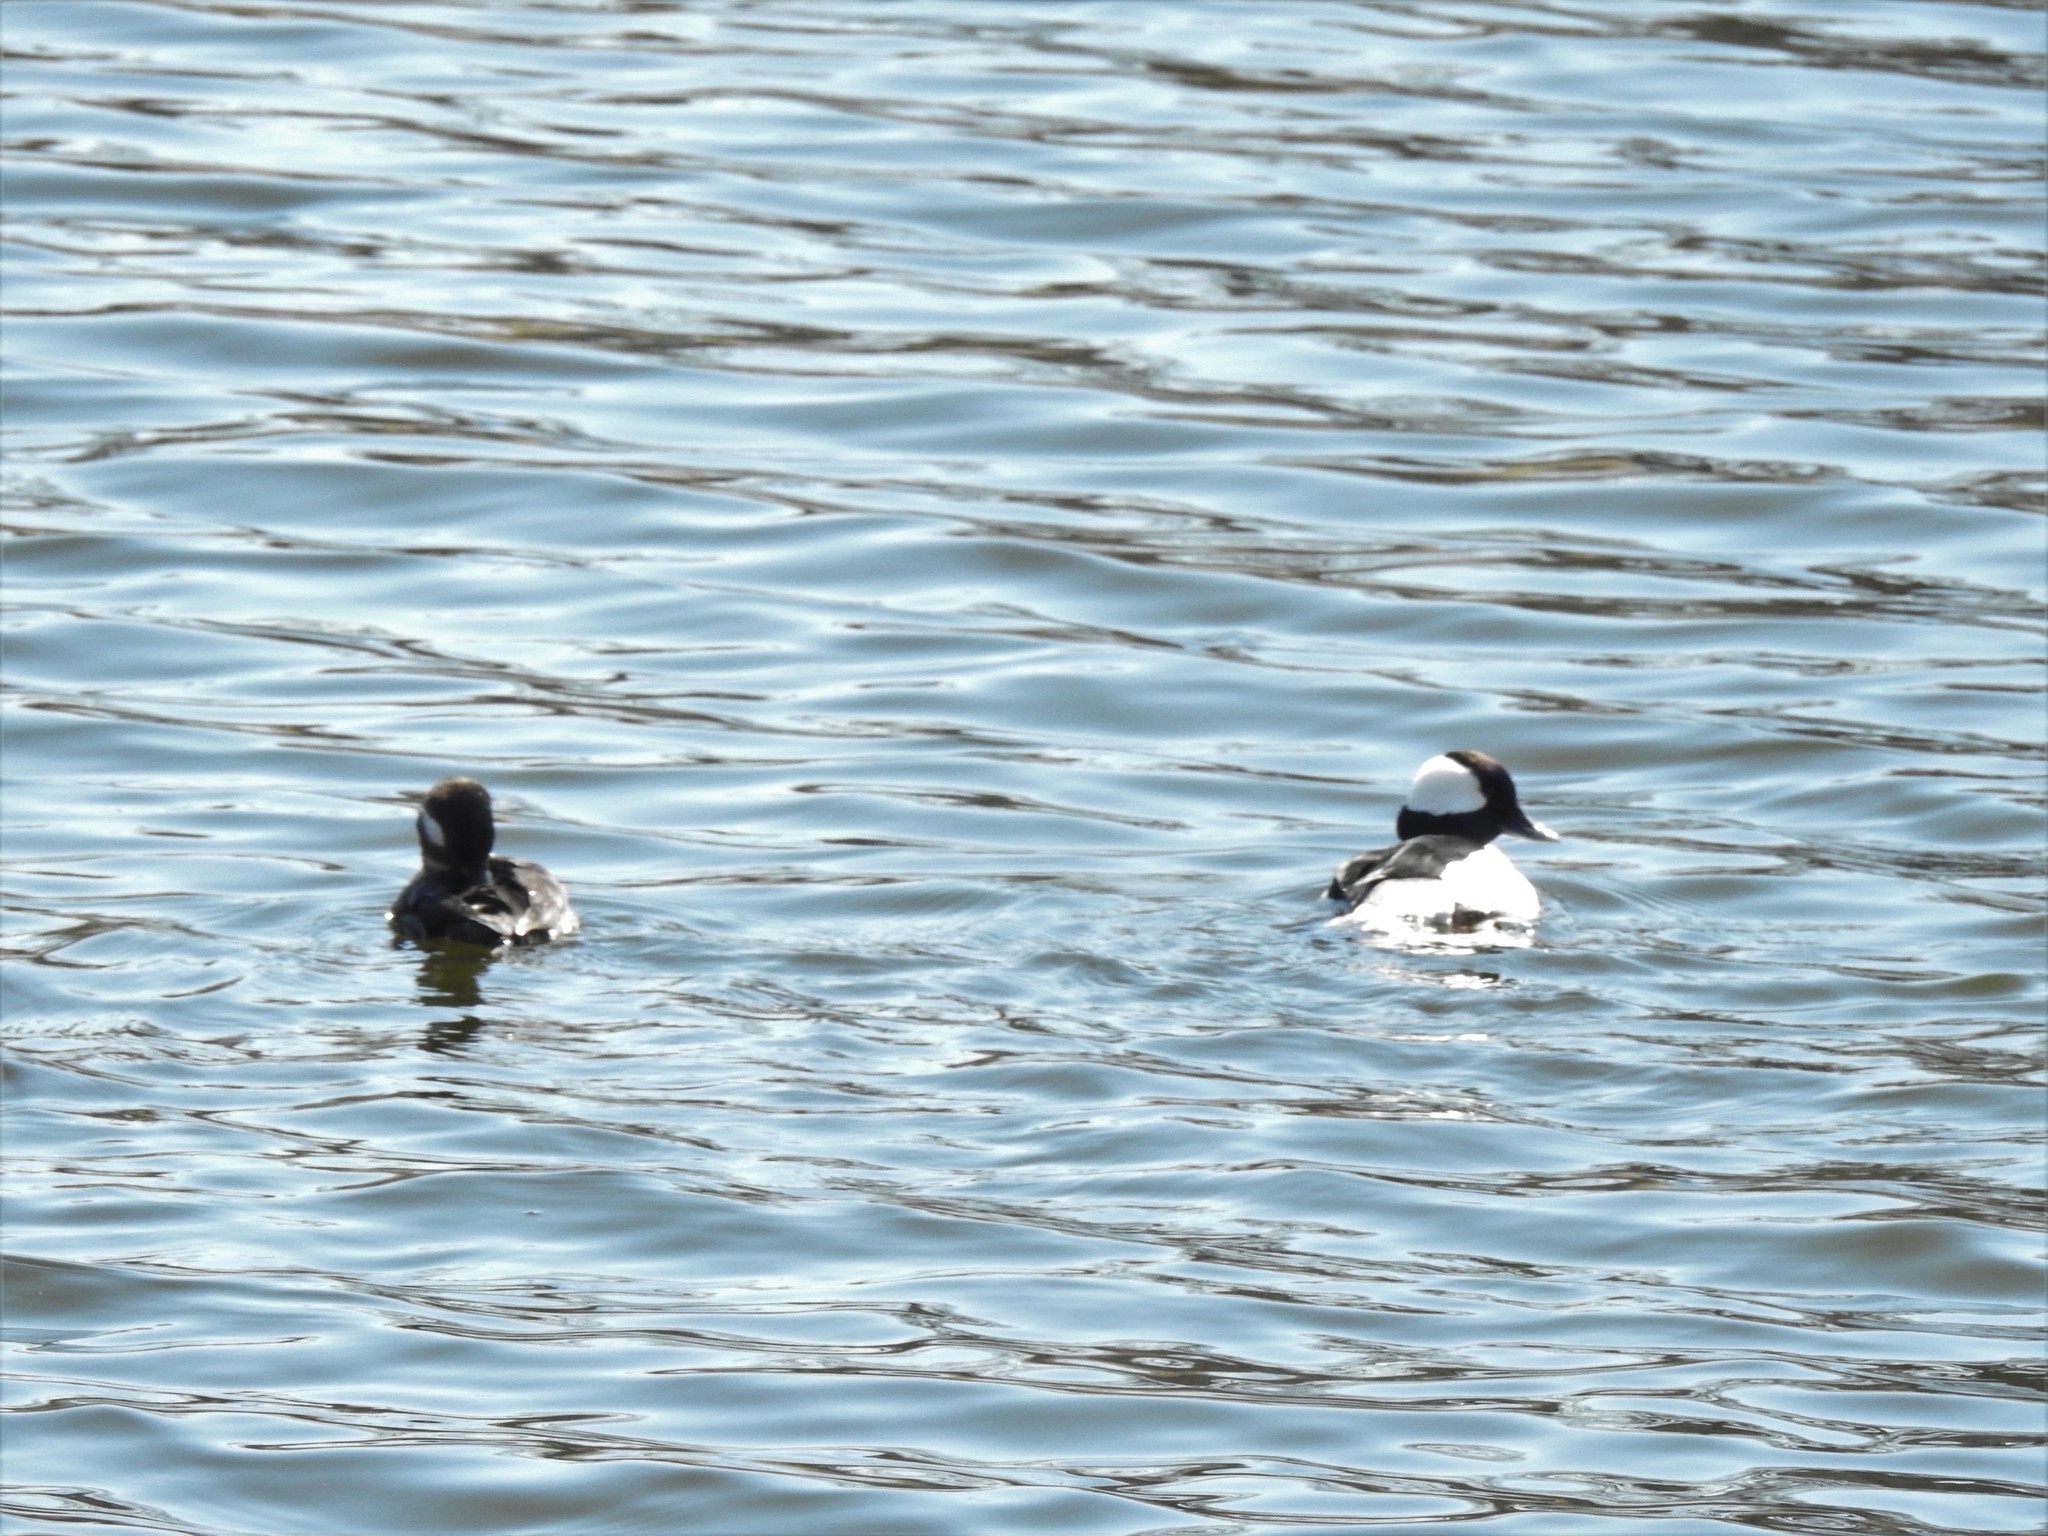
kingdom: Animalia
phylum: Chordata
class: Aves
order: Anseriformes
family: Anatidae
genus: Bucephala
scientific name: Bucephala albeola
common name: Bufflehead
